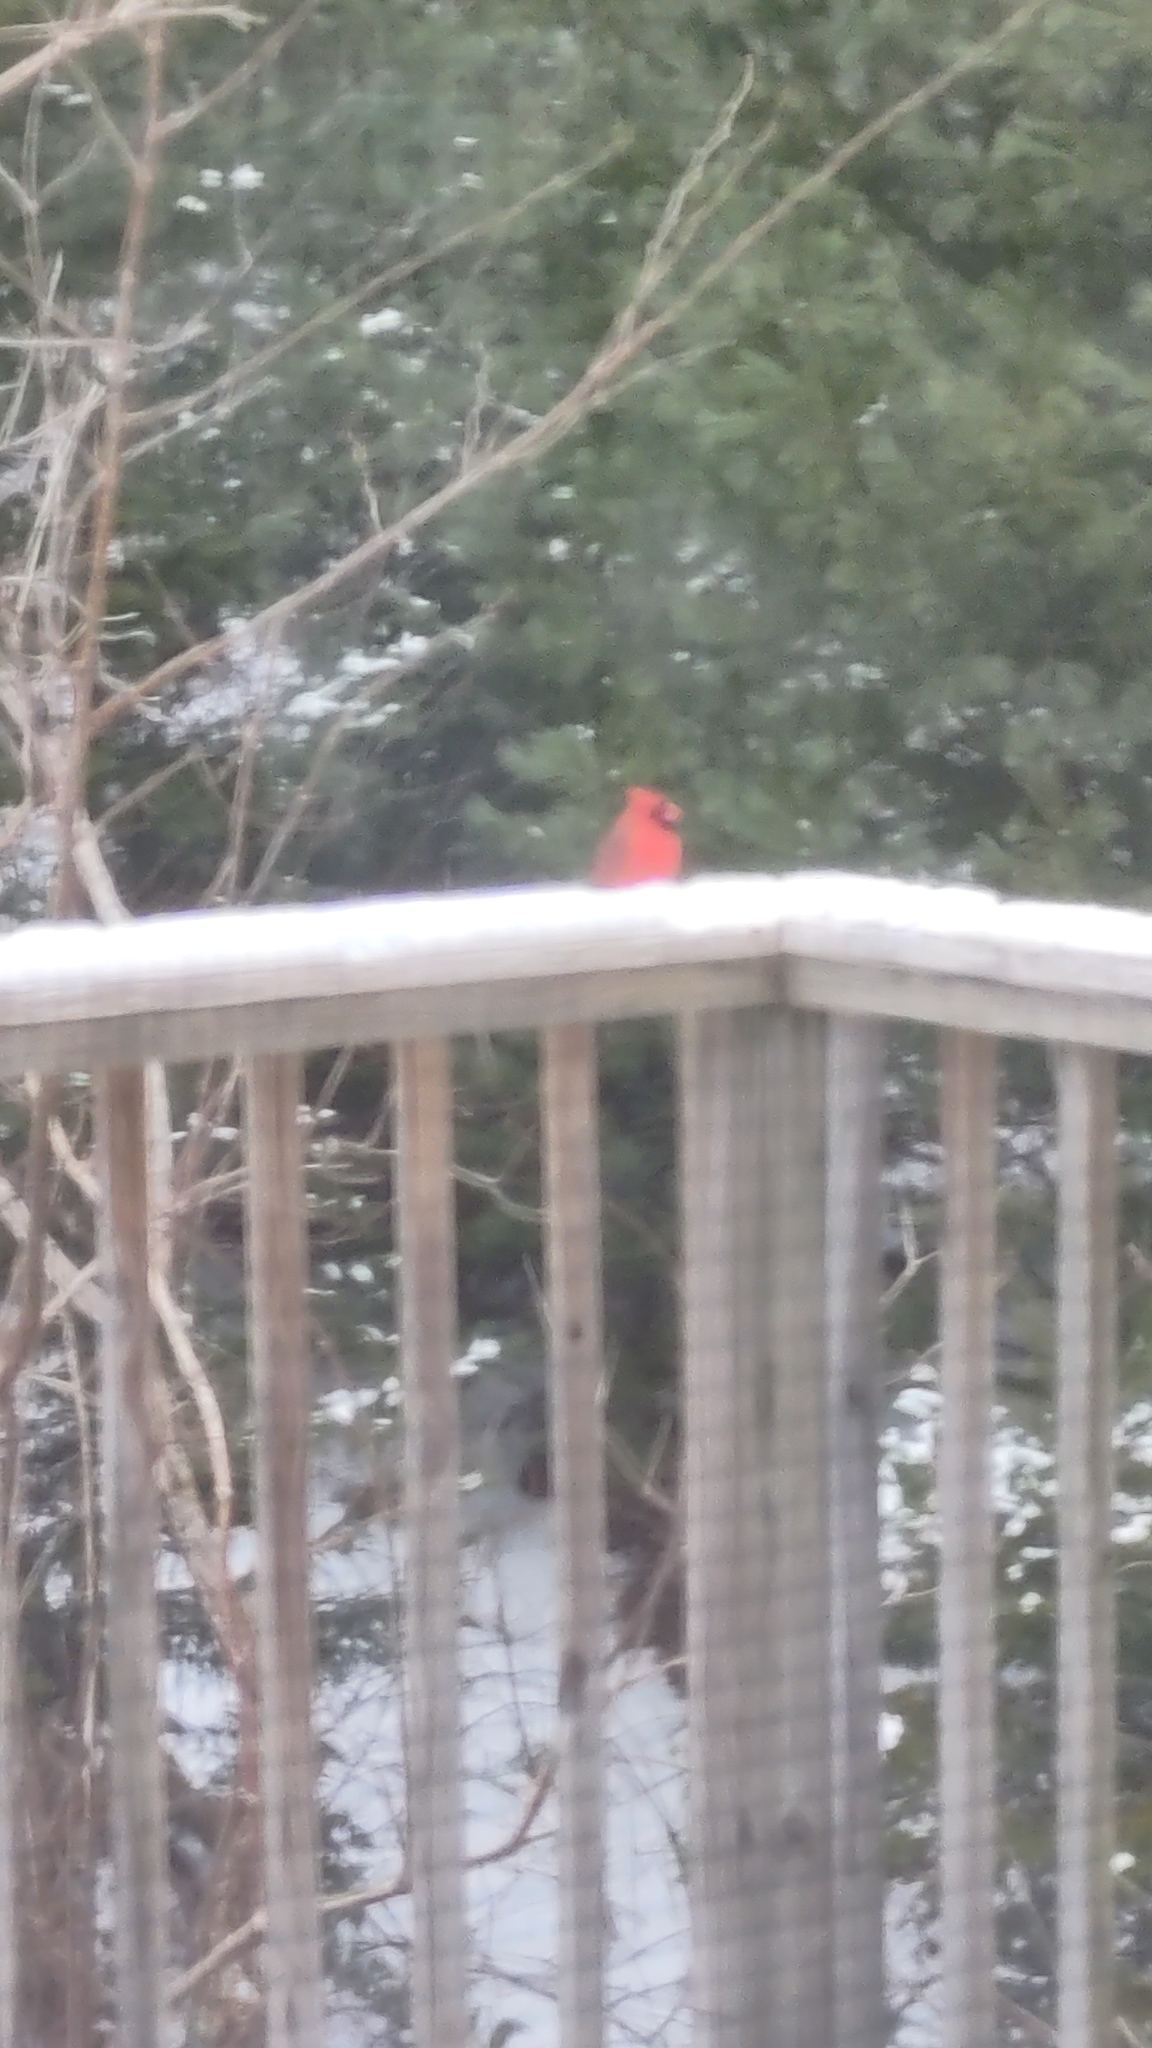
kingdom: Animalia
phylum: Chordata
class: Aves
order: Passeriformes
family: Cardinalidae
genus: Cardinalis
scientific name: Cardinalis cardinalis
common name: Northern cardinal
